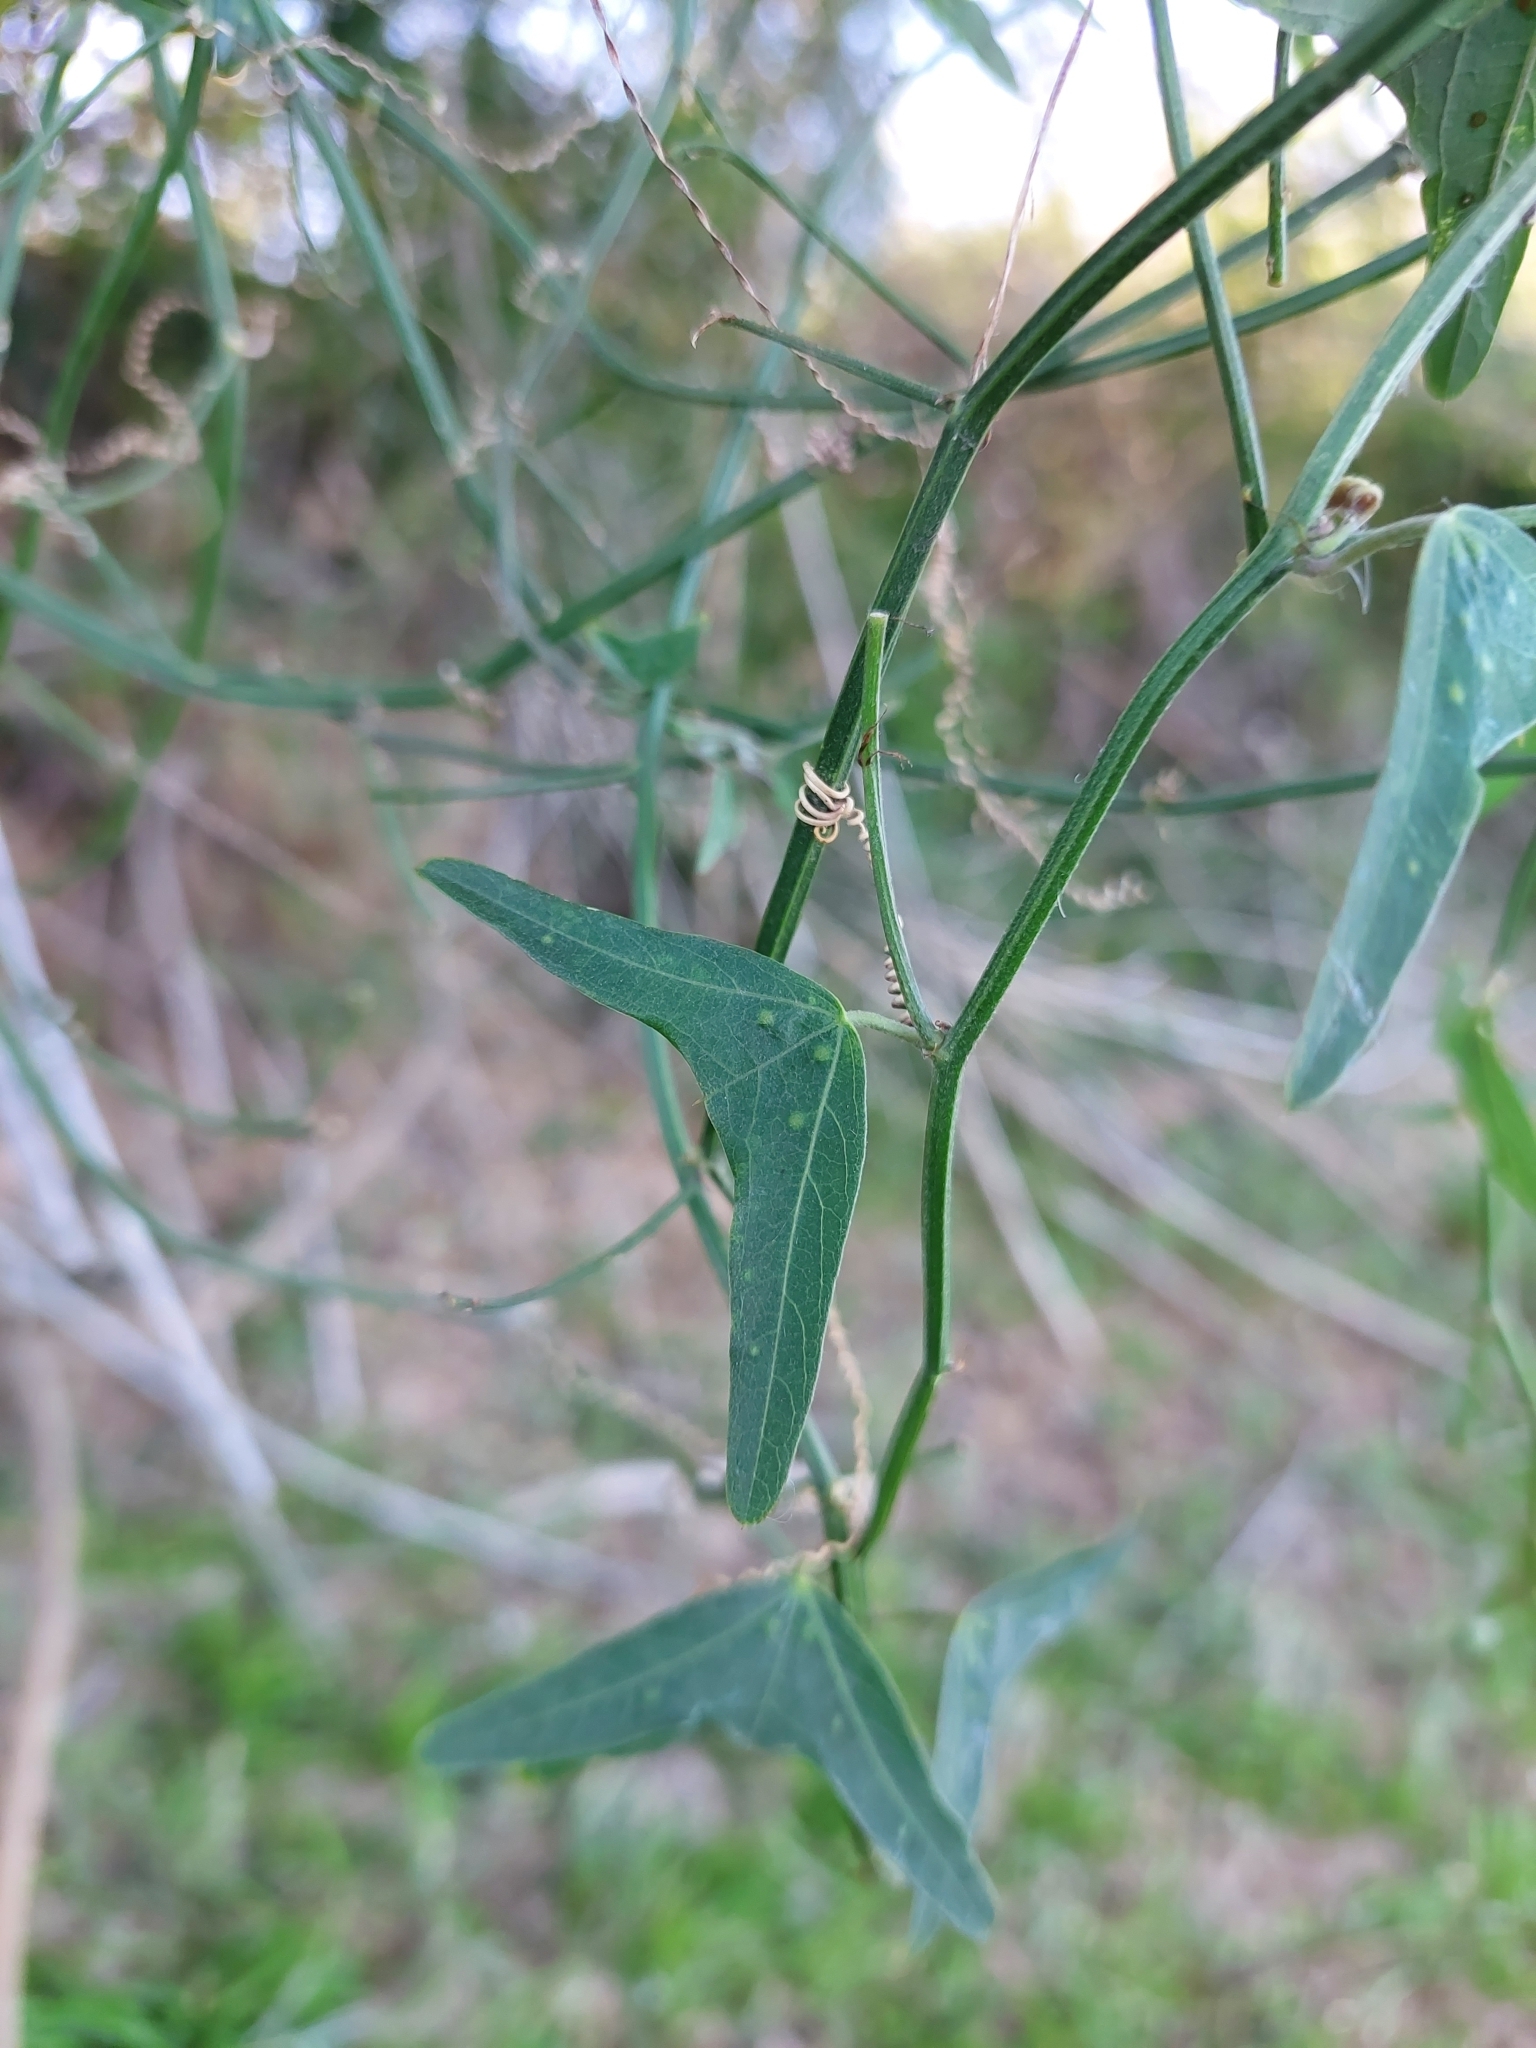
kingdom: Plantae
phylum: Tracheophyta
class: Magnoliopsida
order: Malpighiales
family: Passifloraceae
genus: Passiflora
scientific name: Passiflora misera
